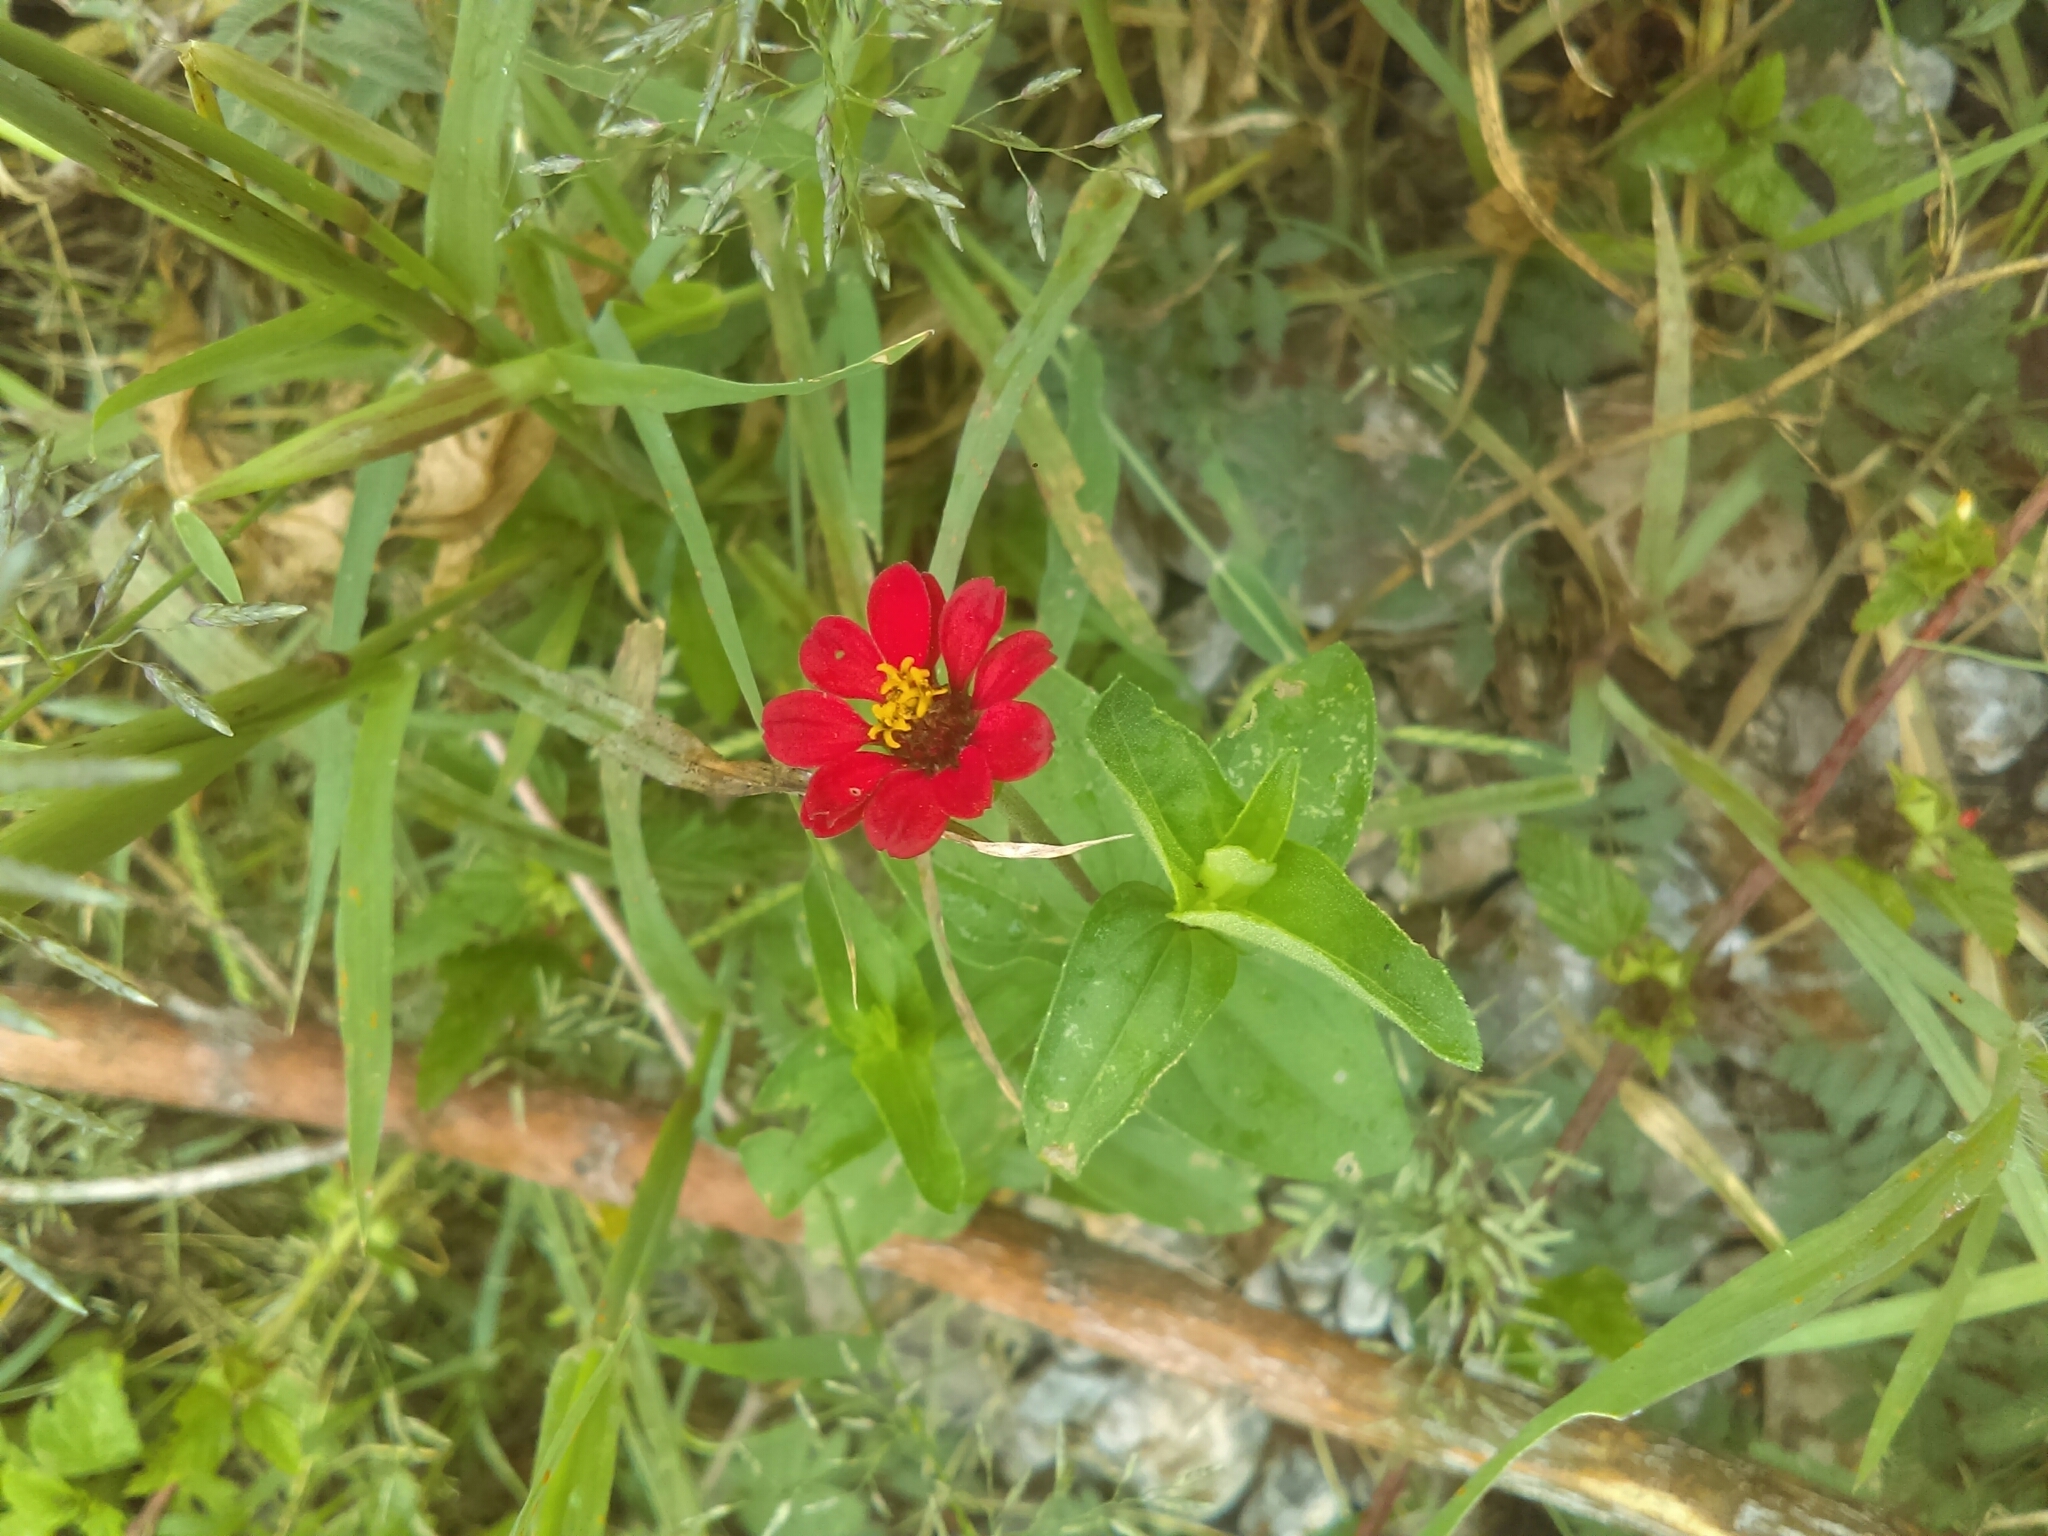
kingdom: Plantae
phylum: Tracheophyta
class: Magnoliopsida
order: Asterales
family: Asteraceae
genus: Zinnia
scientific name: Zinnia peruviana
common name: Peruvian zinnia
